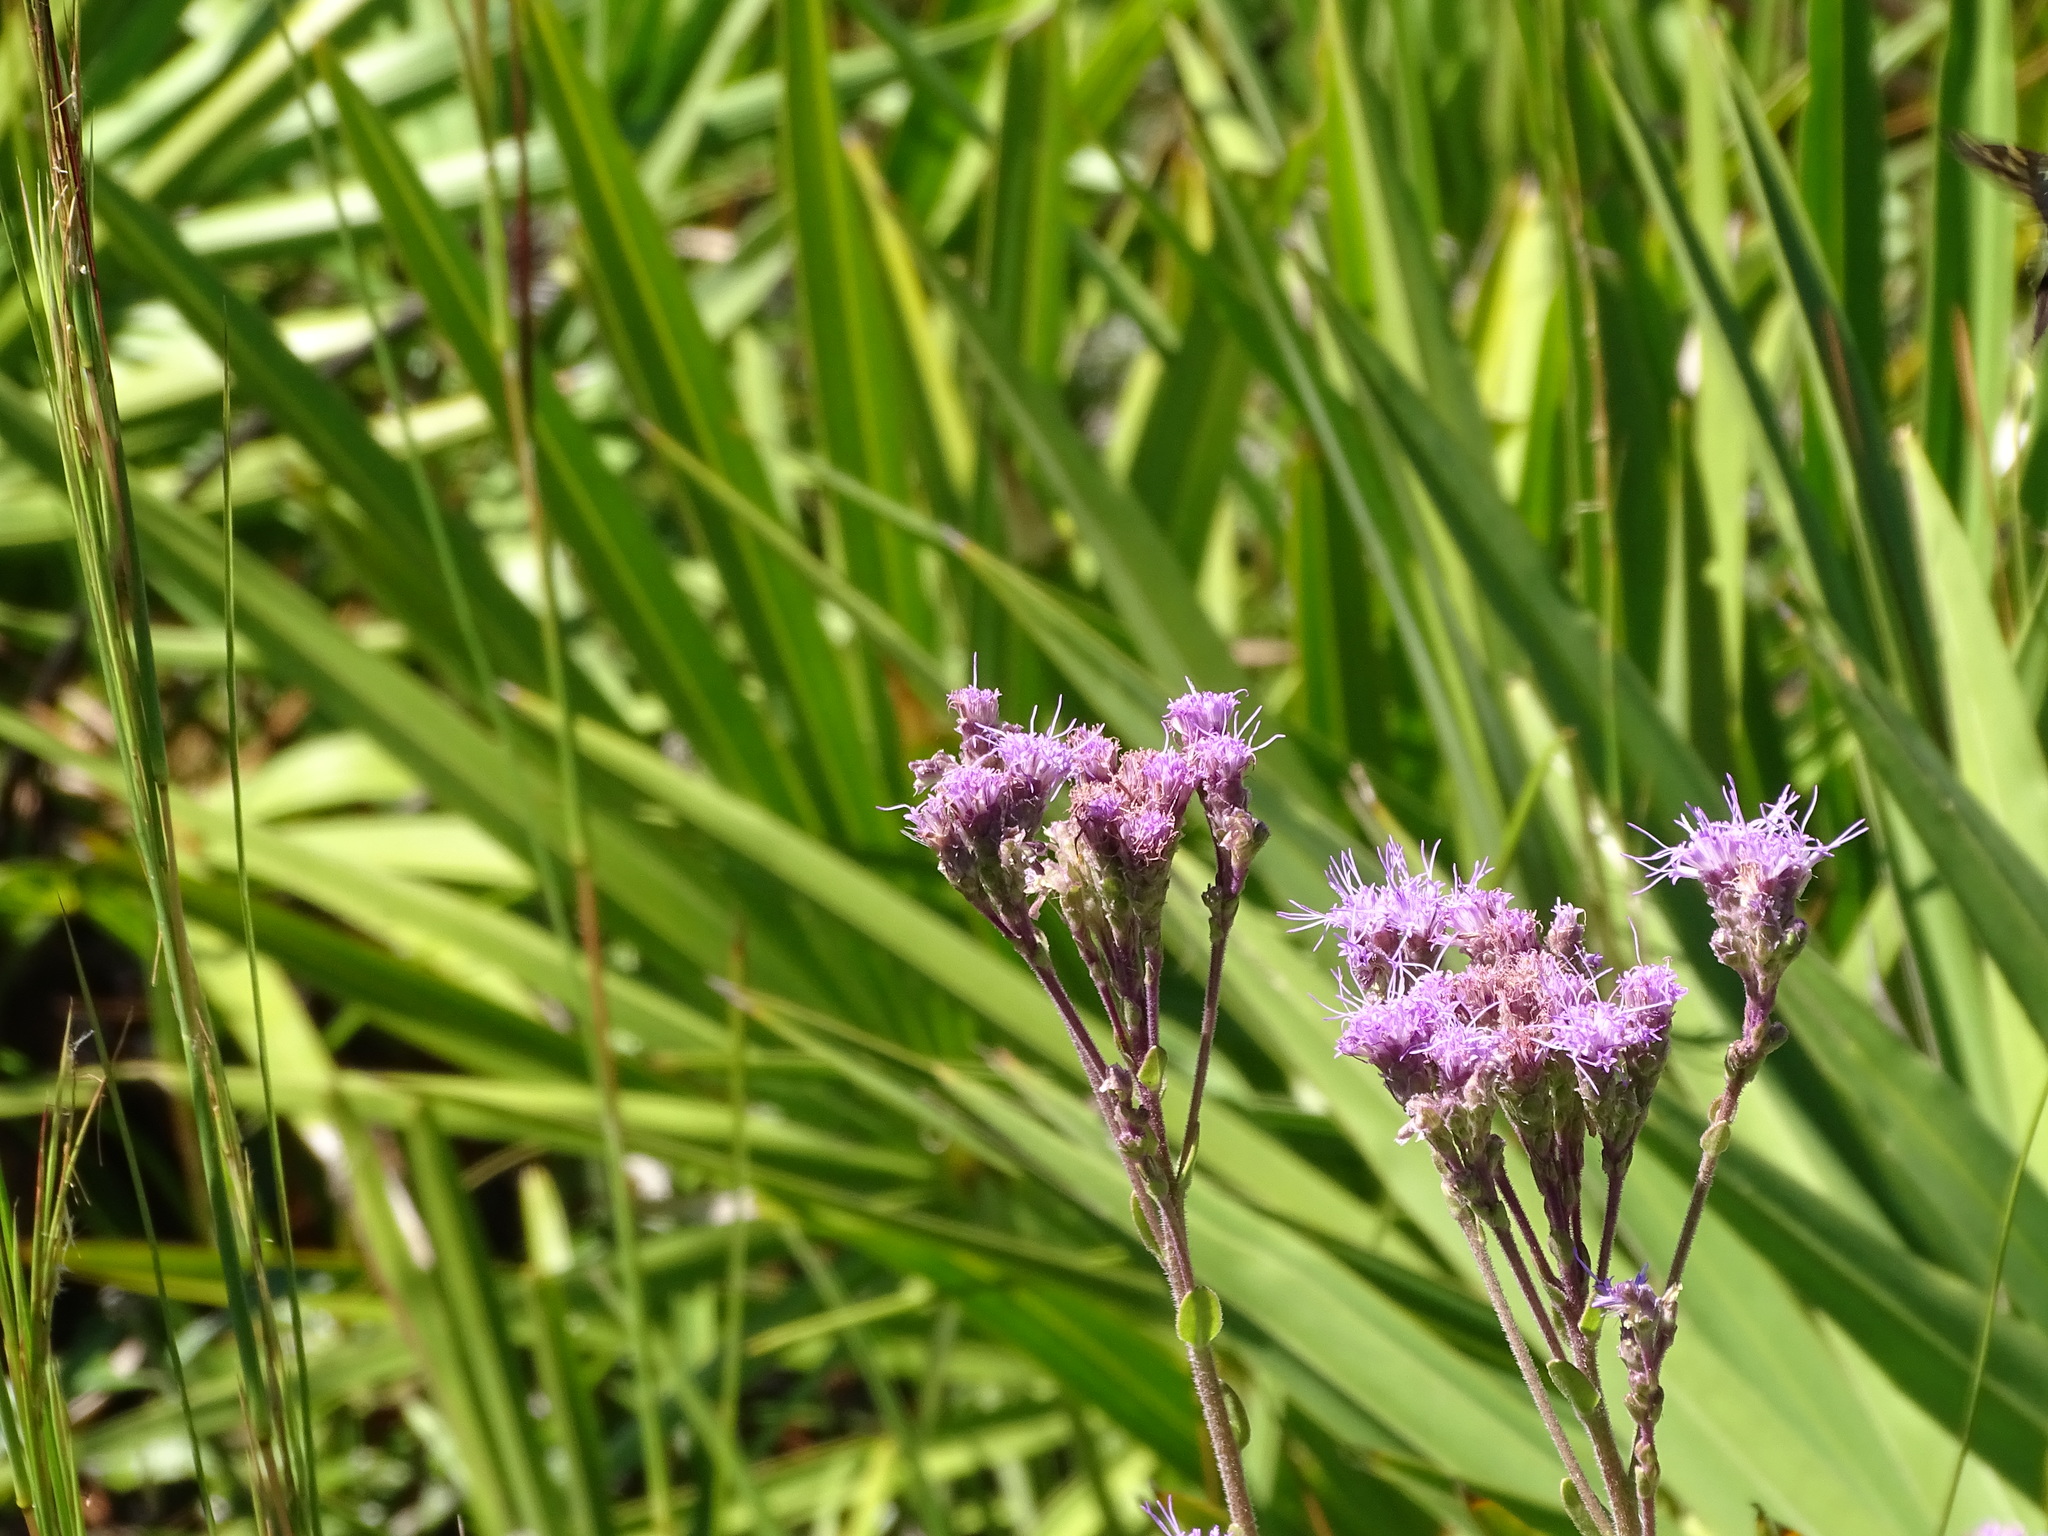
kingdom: Plantae
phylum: Tracheophyta
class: Magnoliopsida
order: Asterales
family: Asteraceae
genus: Carphephorus
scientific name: Carphephorus corymbosus
